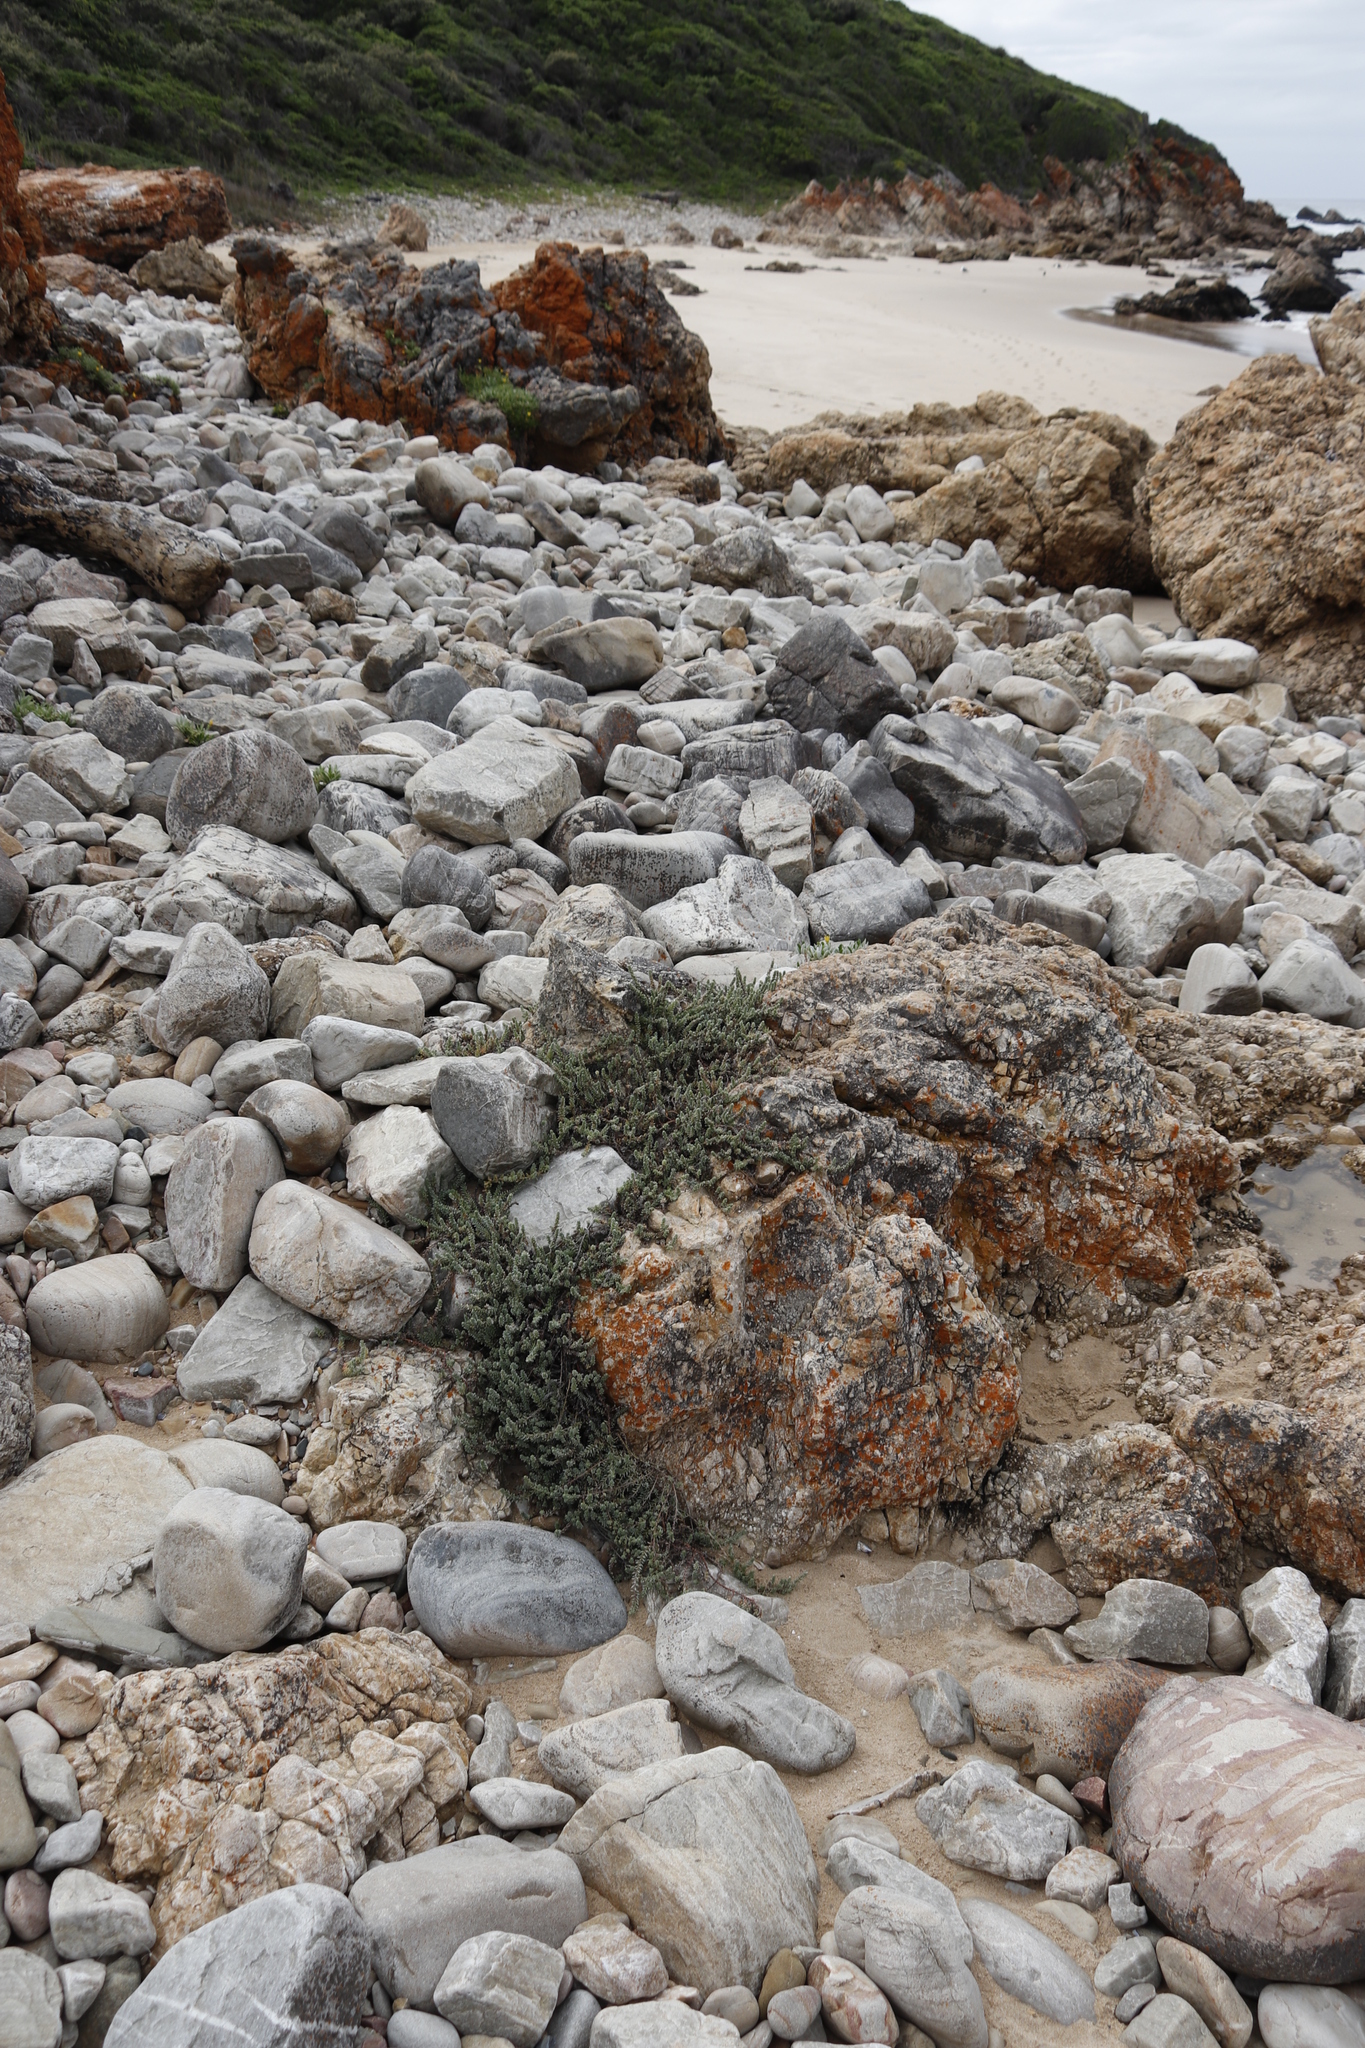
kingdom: Plantae
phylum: Tracheophyta
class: Magnoliopsida
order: Caryophyllales
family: Amaranthaceae
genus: Chenolea
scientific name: Chenolea diffusa
